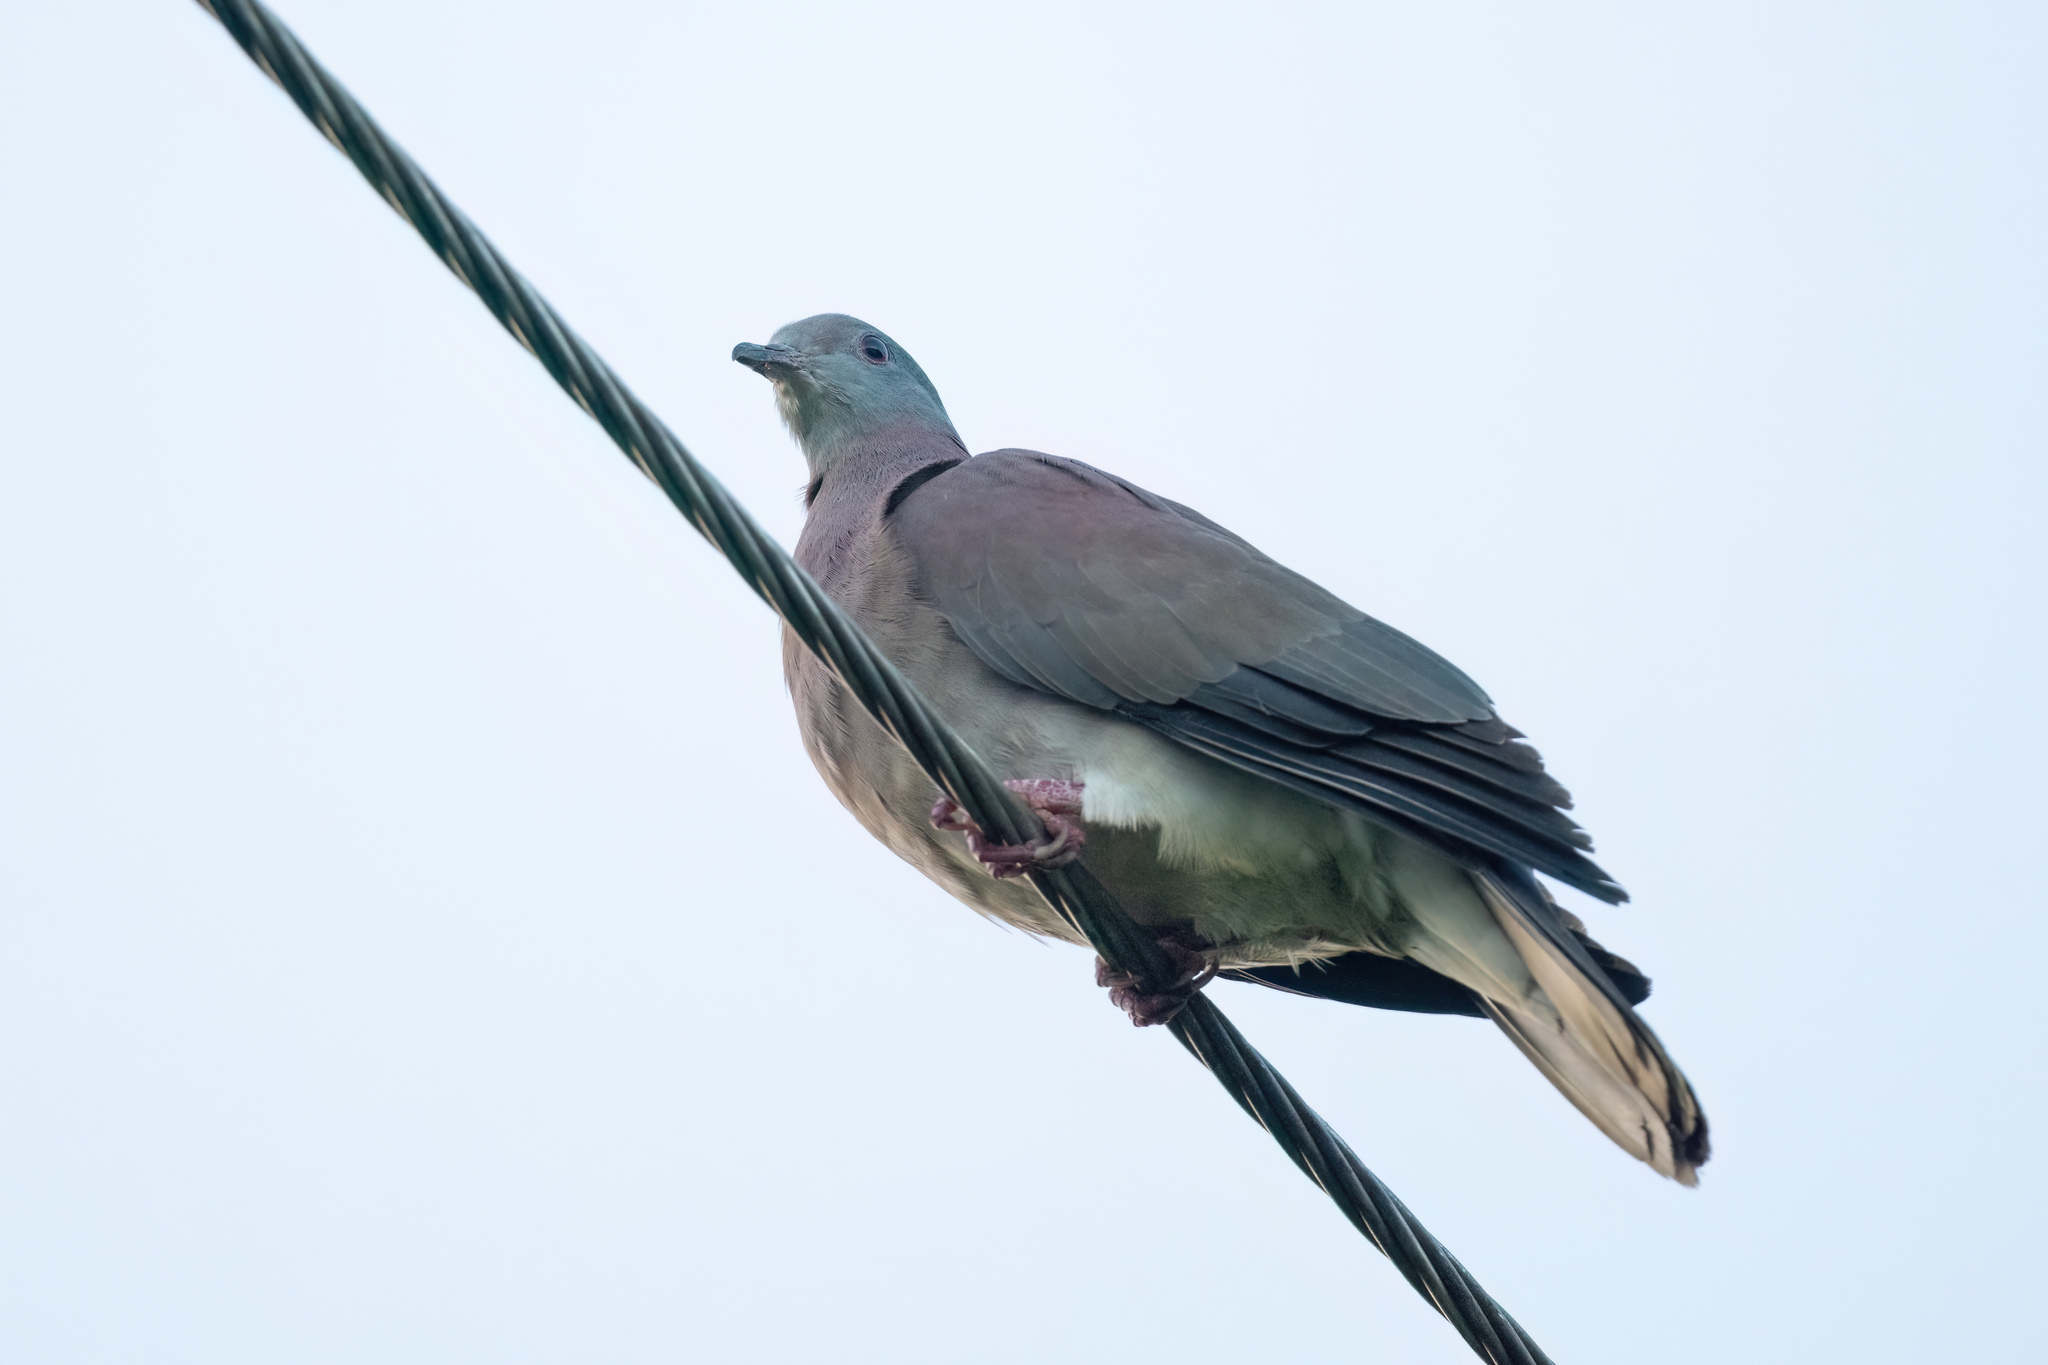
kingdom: Animalia
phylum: Chordata
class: Aves
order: Columbiformes
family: Columbidae
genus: Patagioenas
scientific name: Patagioenas cayennensis
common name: Pale-vented pigeon
